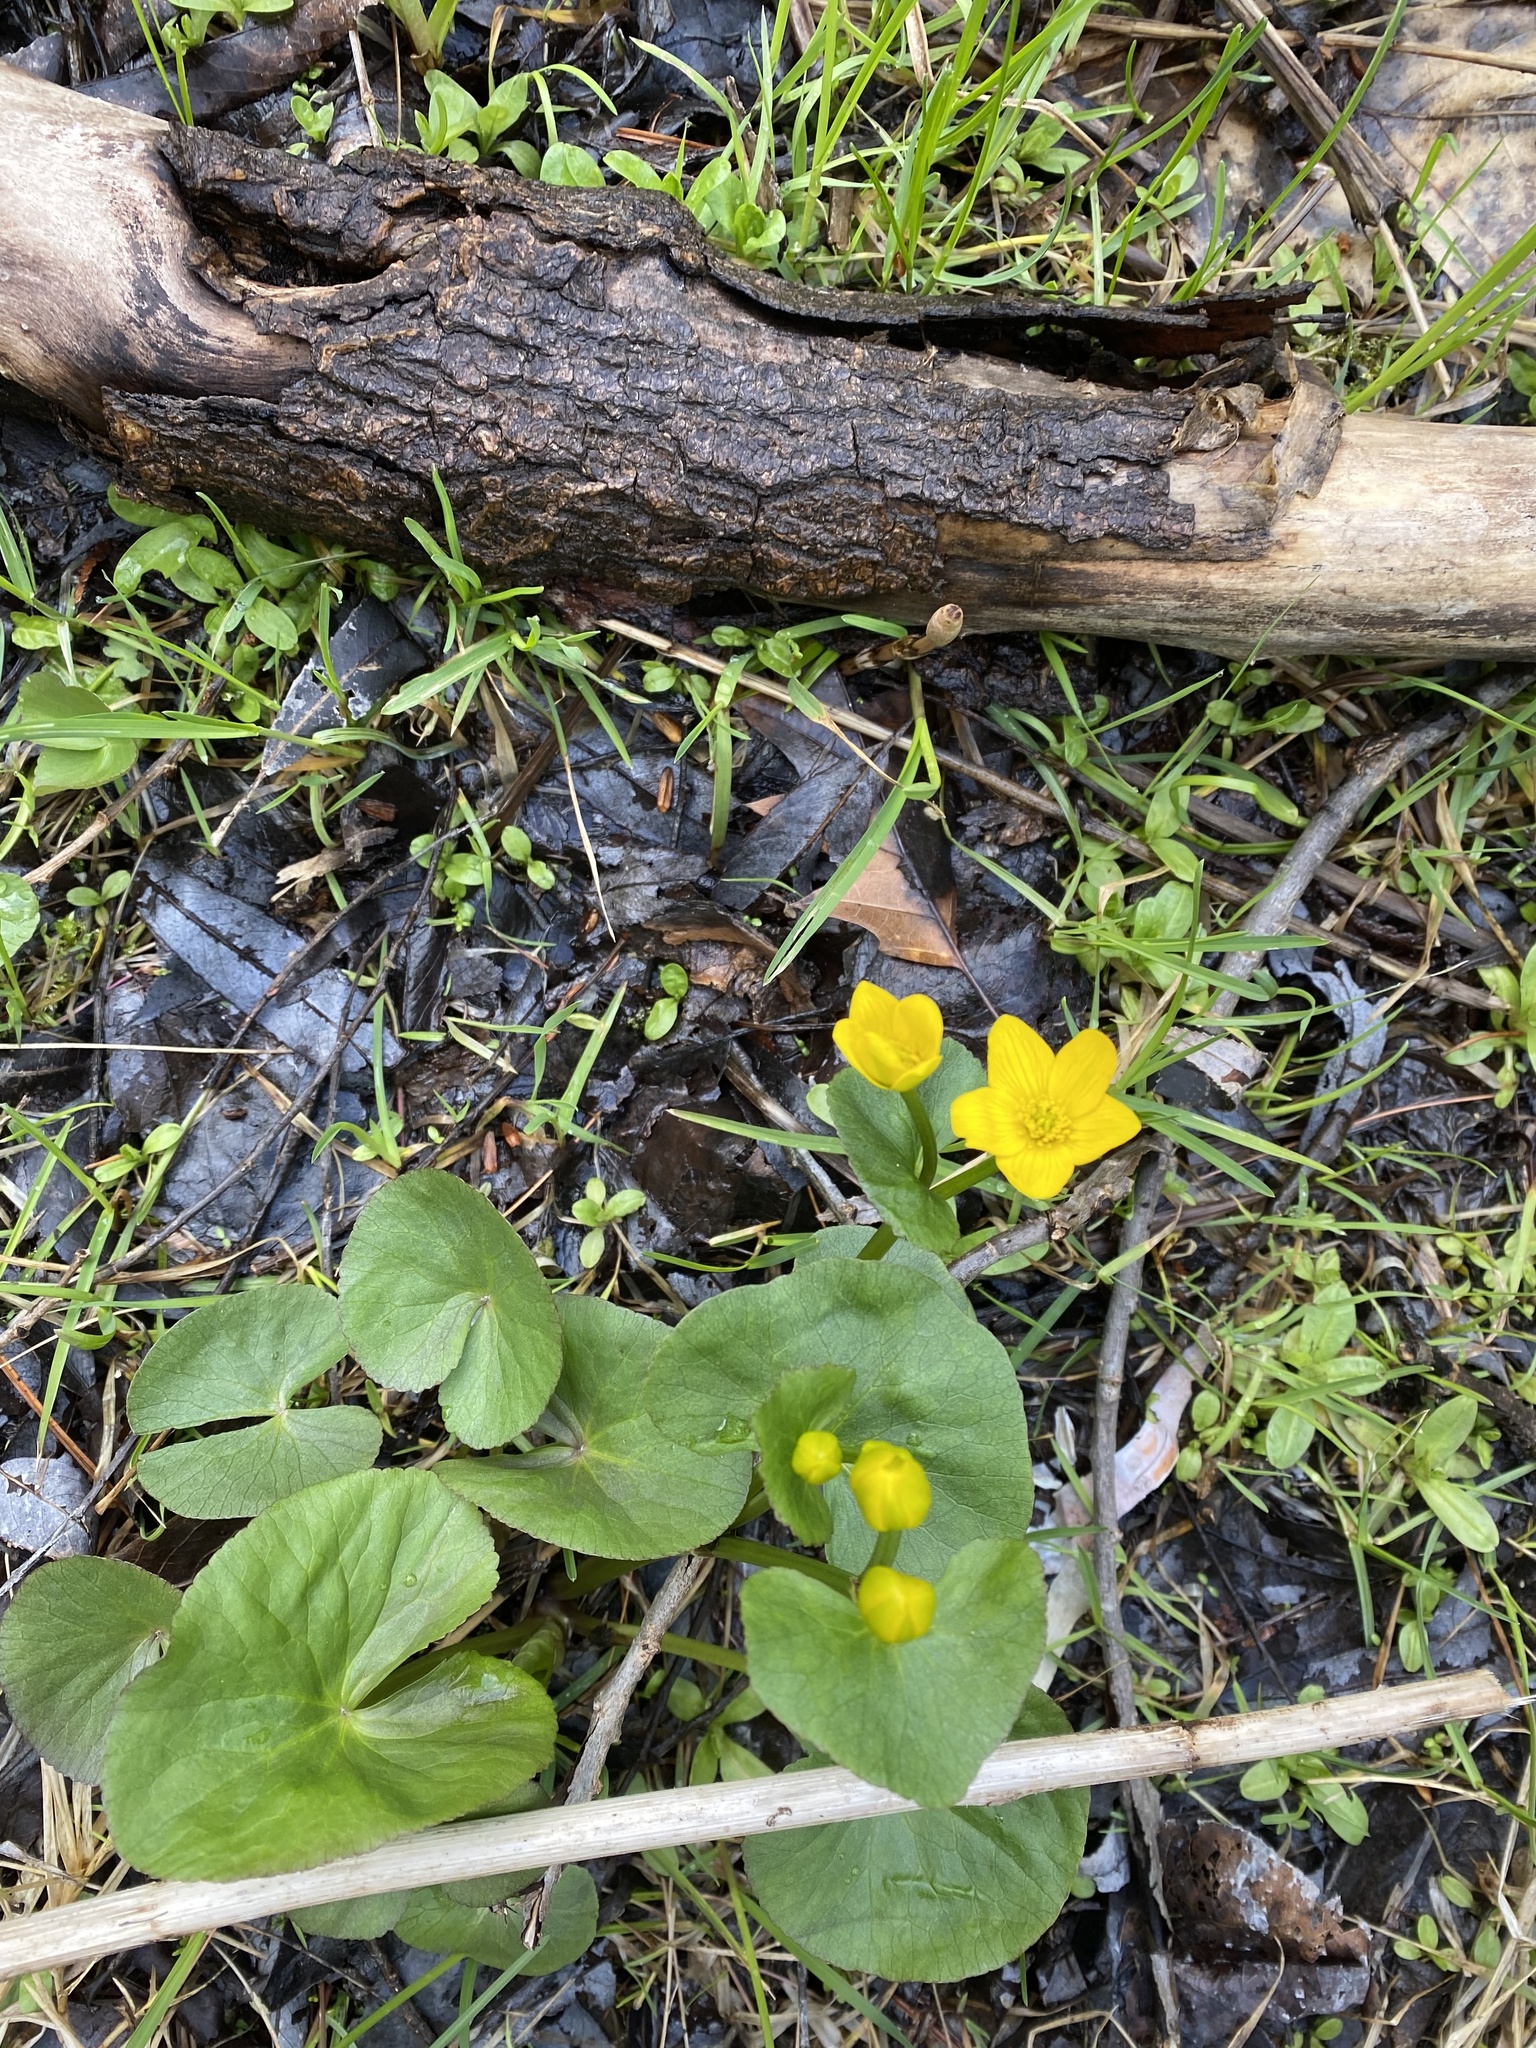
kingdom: Plantae
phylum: Tracheophyta
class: Magnoliopsida
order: Ranunculales
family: Ranunculaceae
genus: Caltha
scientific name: Caltha palustris
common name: Marsh marigold
